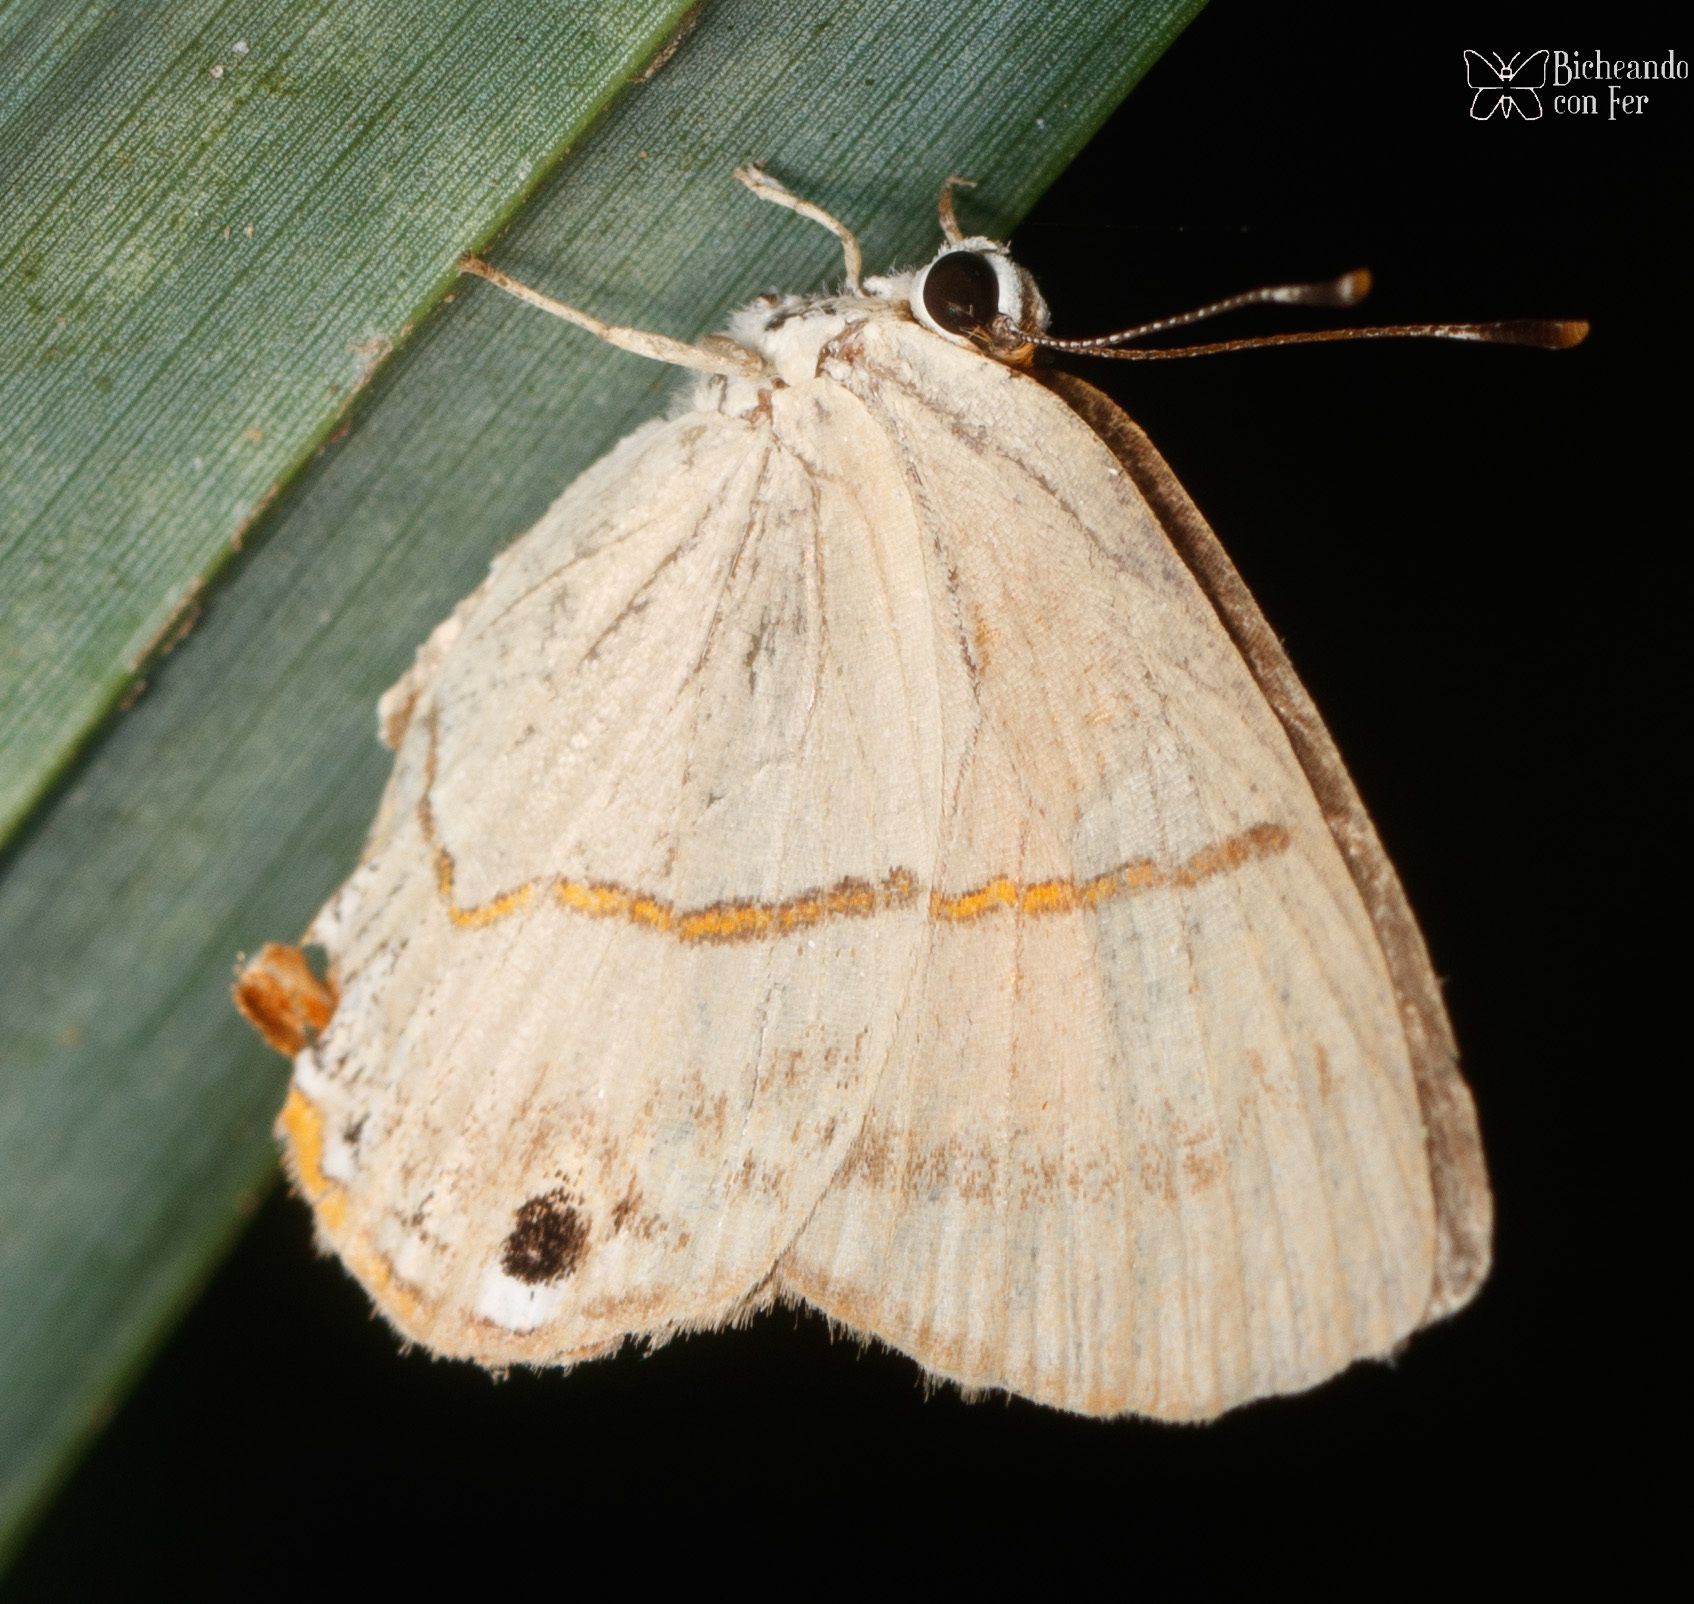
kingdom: Animalia
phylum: Arthropoda
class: Insecta
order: Lepidoptera
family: Riodinidae
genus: Myselasia
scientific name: Myselasia
